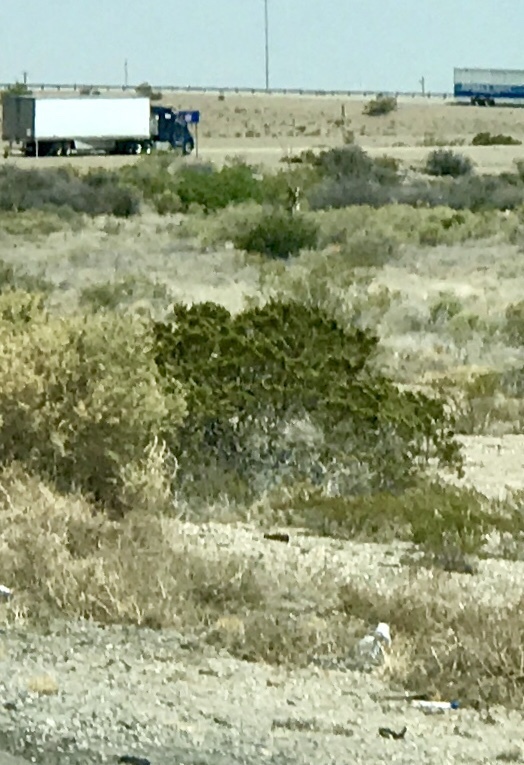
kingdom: Plantae
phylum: Tracheophyta
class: Magnoliopsida
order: Zygophyllales
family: Zygophyllaceae
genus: Larrea
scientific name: Larrea tridentata
